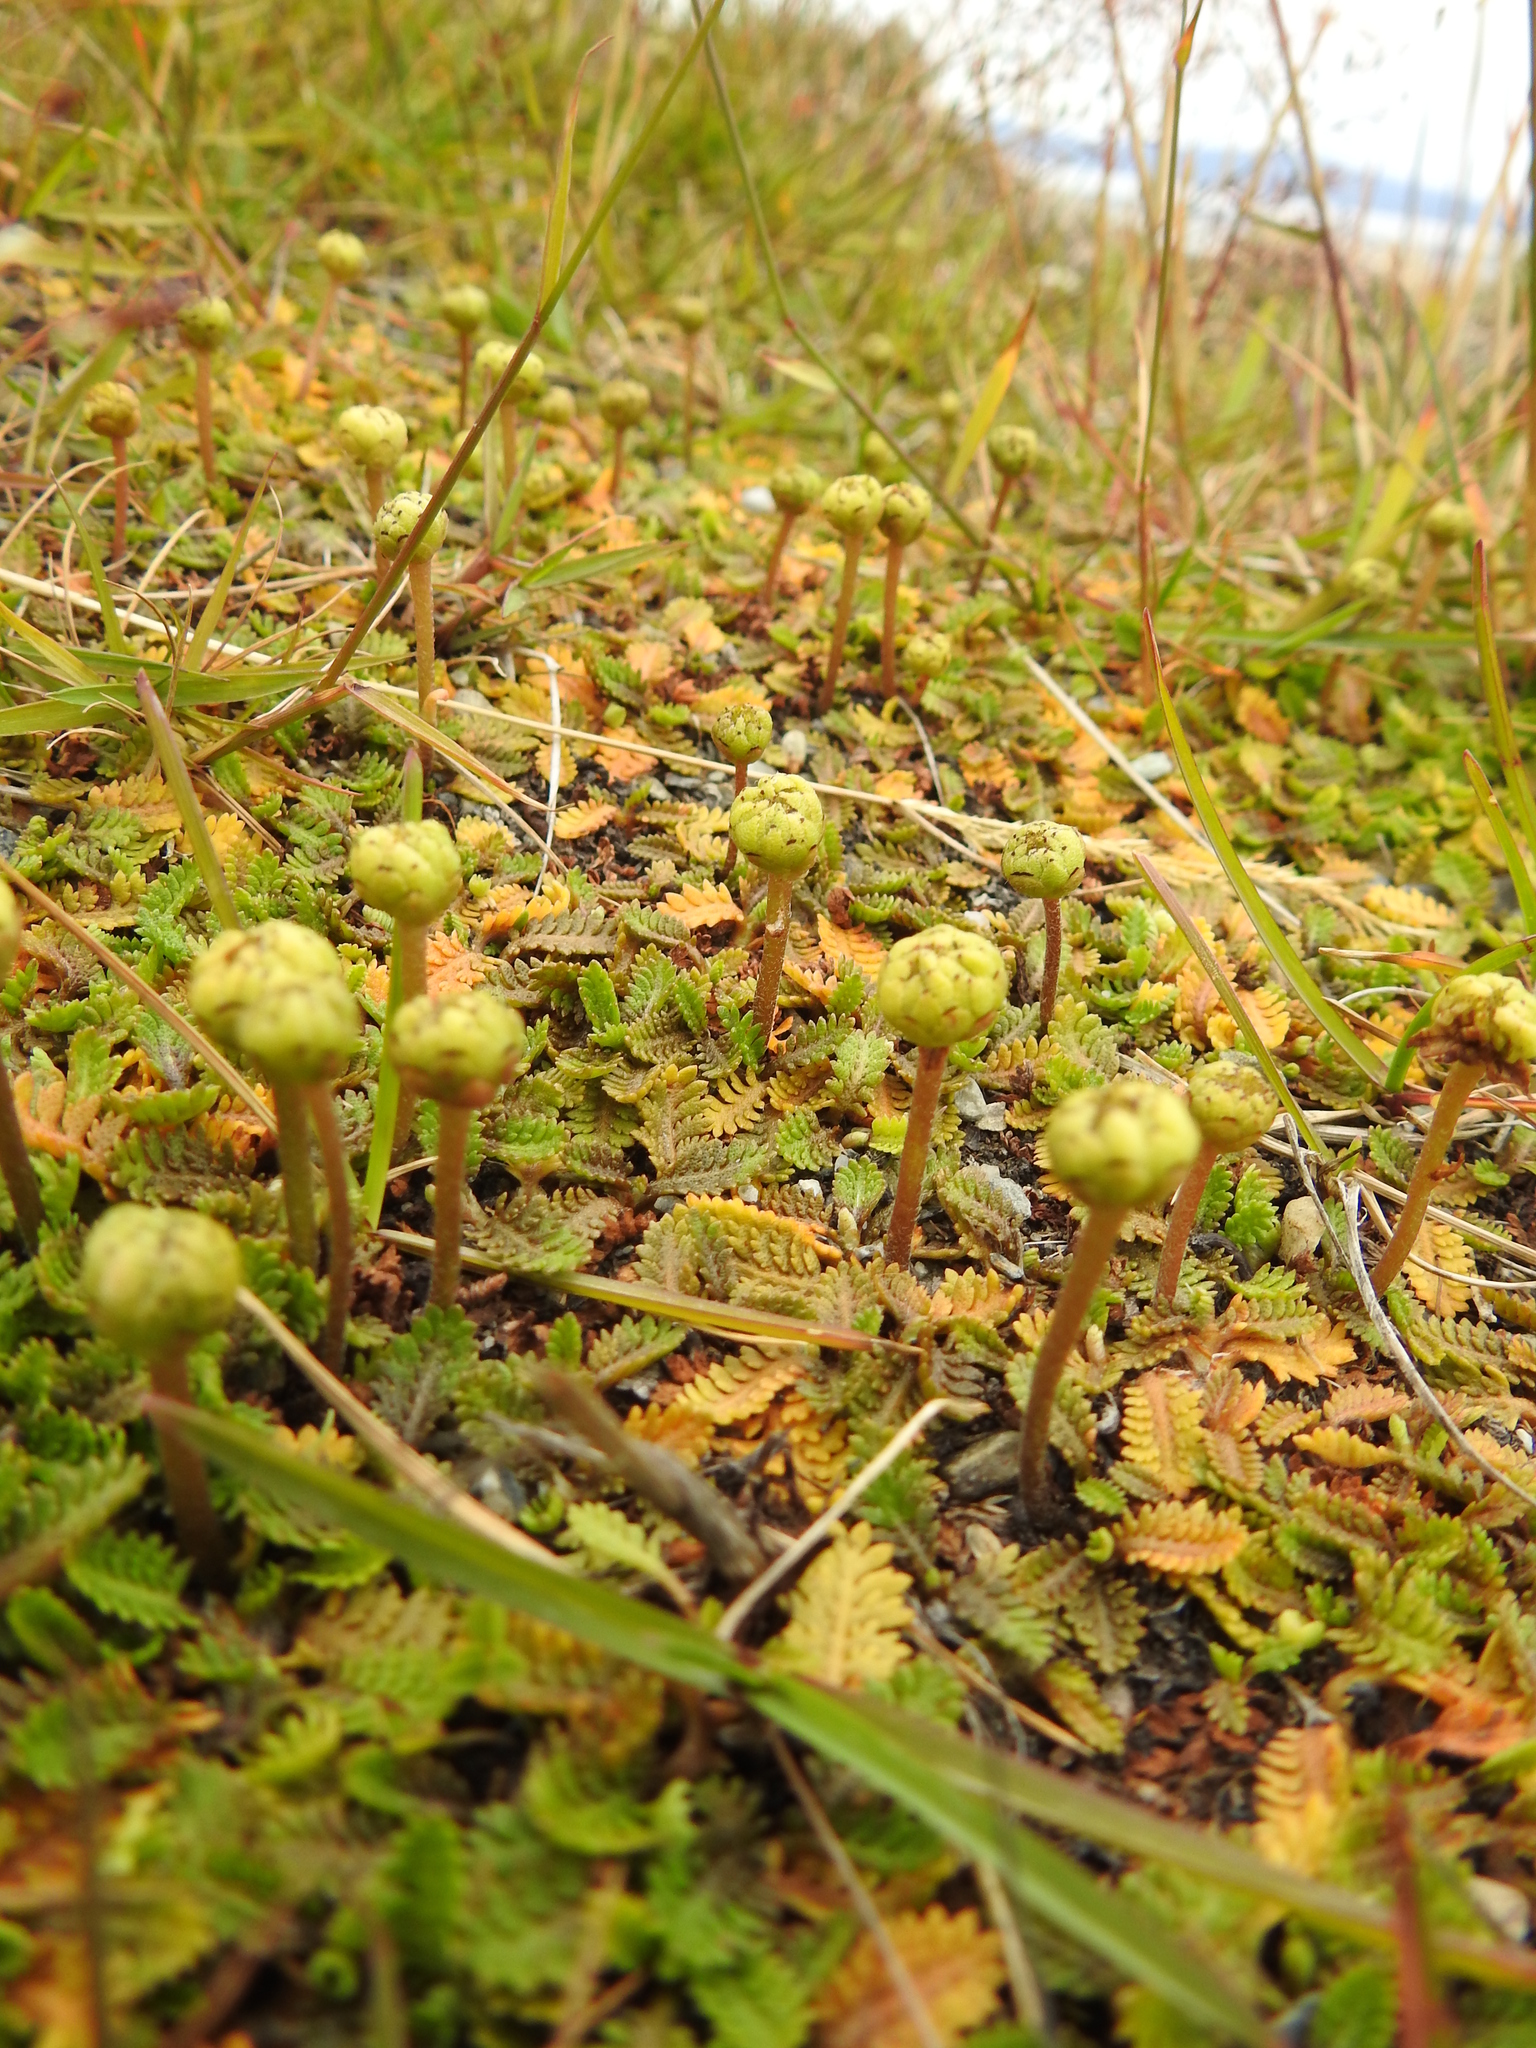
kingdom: Plantae
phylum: Tracheophyta
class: Magnoliopsida
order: Asterales
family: Asteraceae
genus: Leptinella
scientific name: Leptinella scariosa
